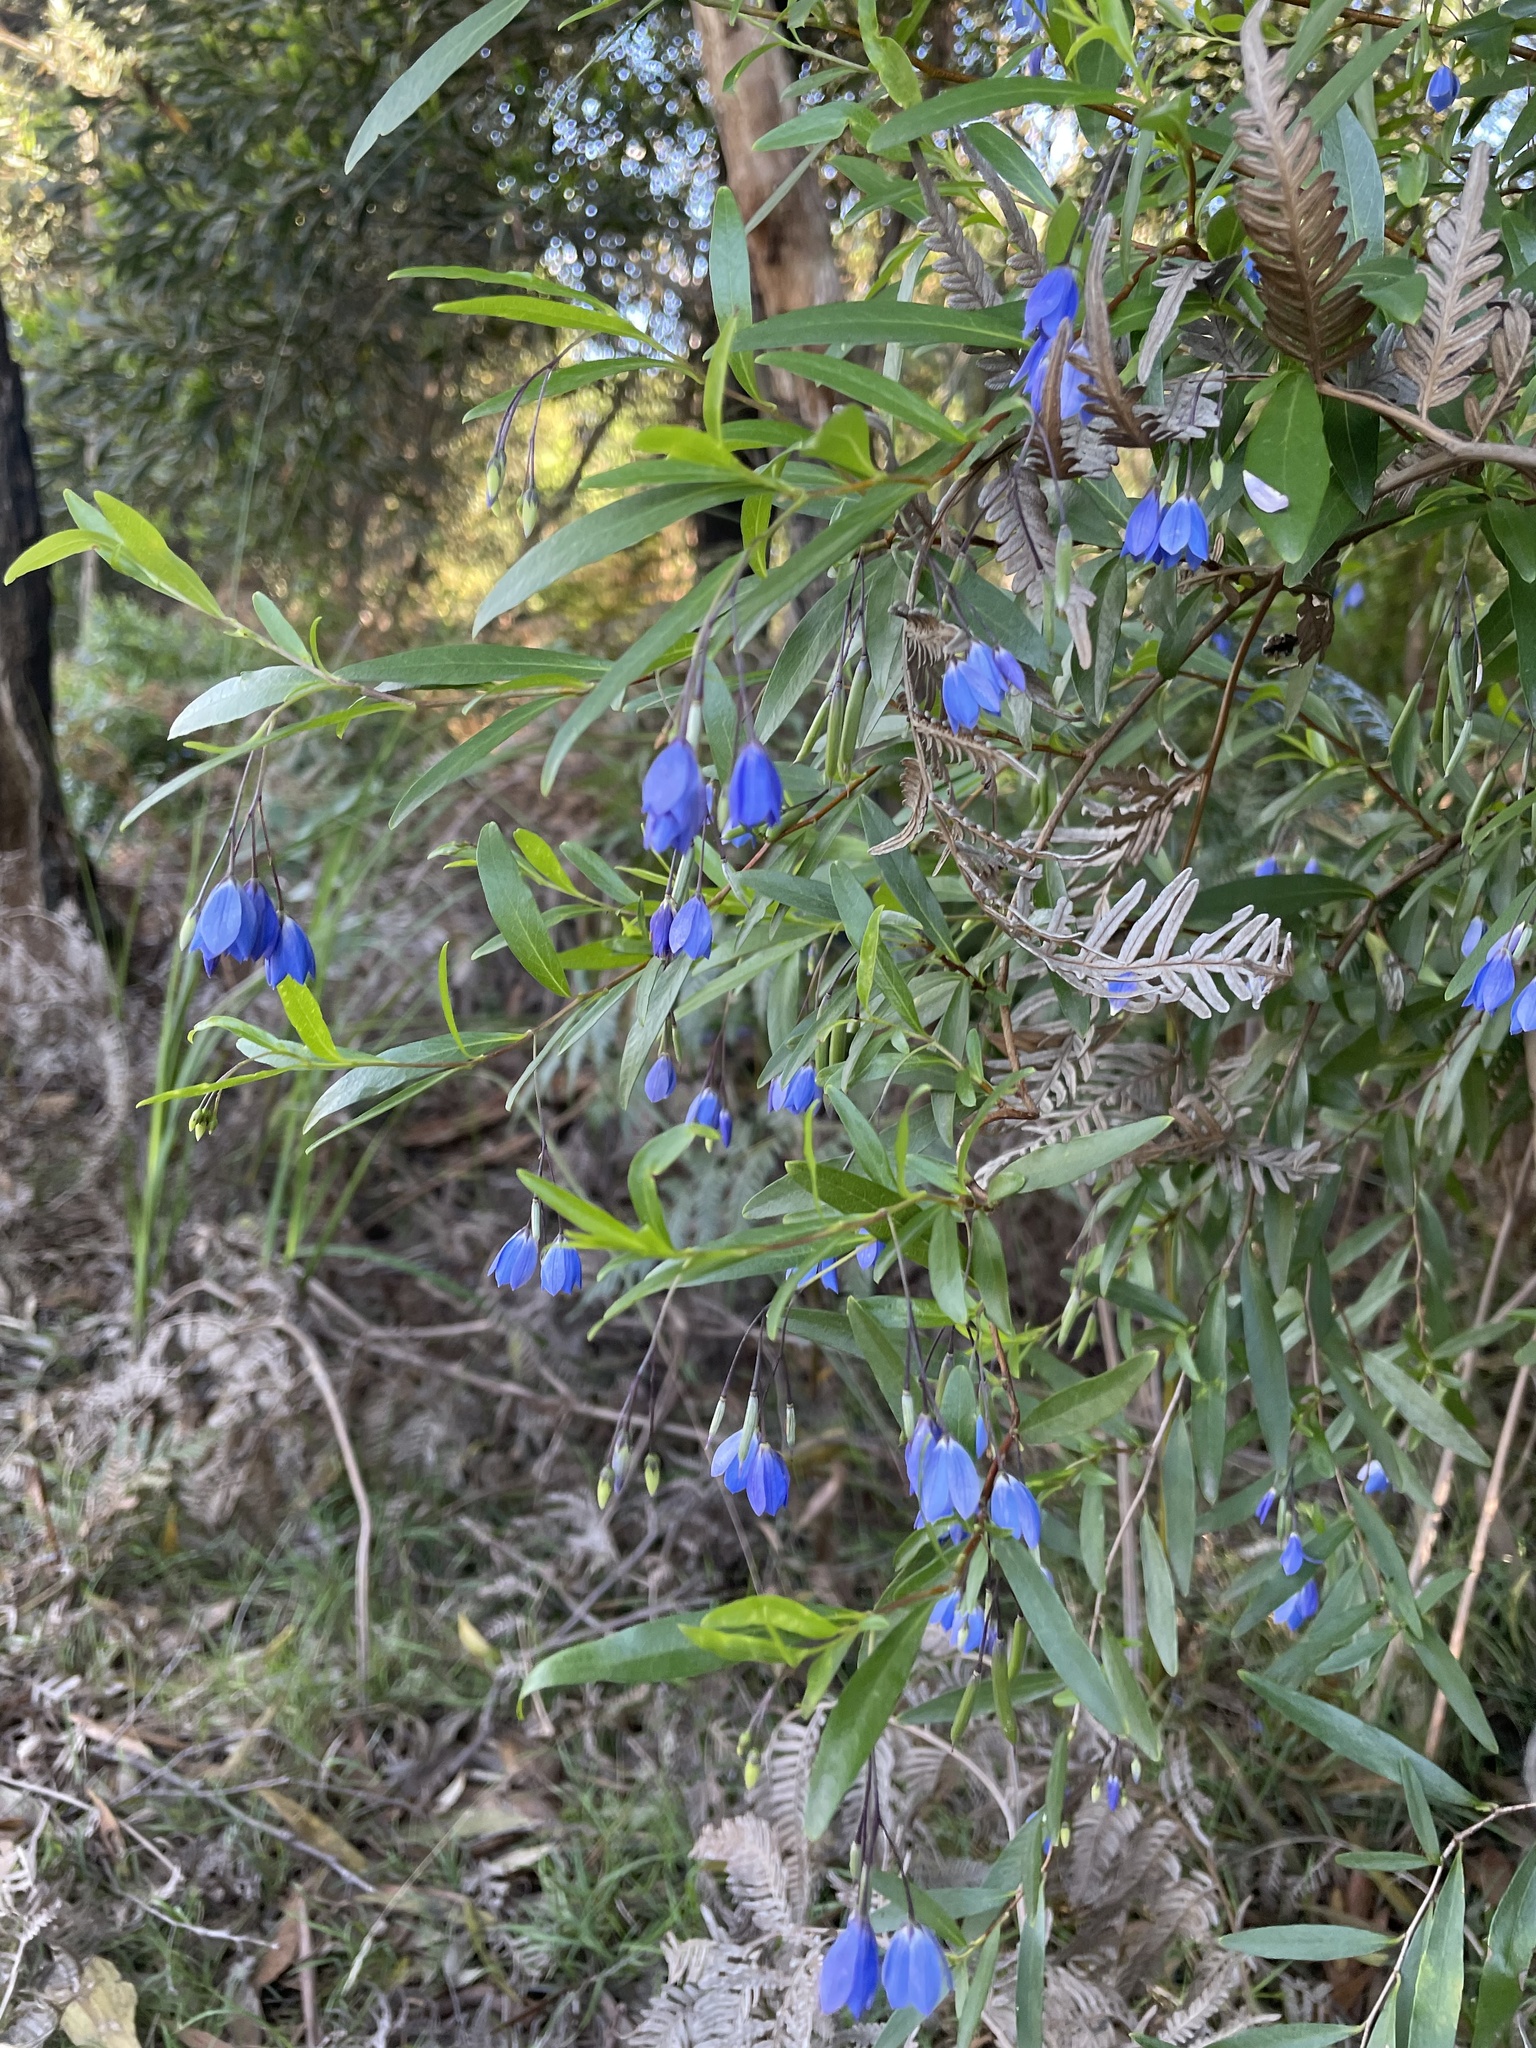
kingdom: Plantae
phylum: Tracheophyta
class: Magnoliopsida
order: Apiales
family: Pittosporaceae
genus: Billardiera
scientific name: Billardiera fusiformis
